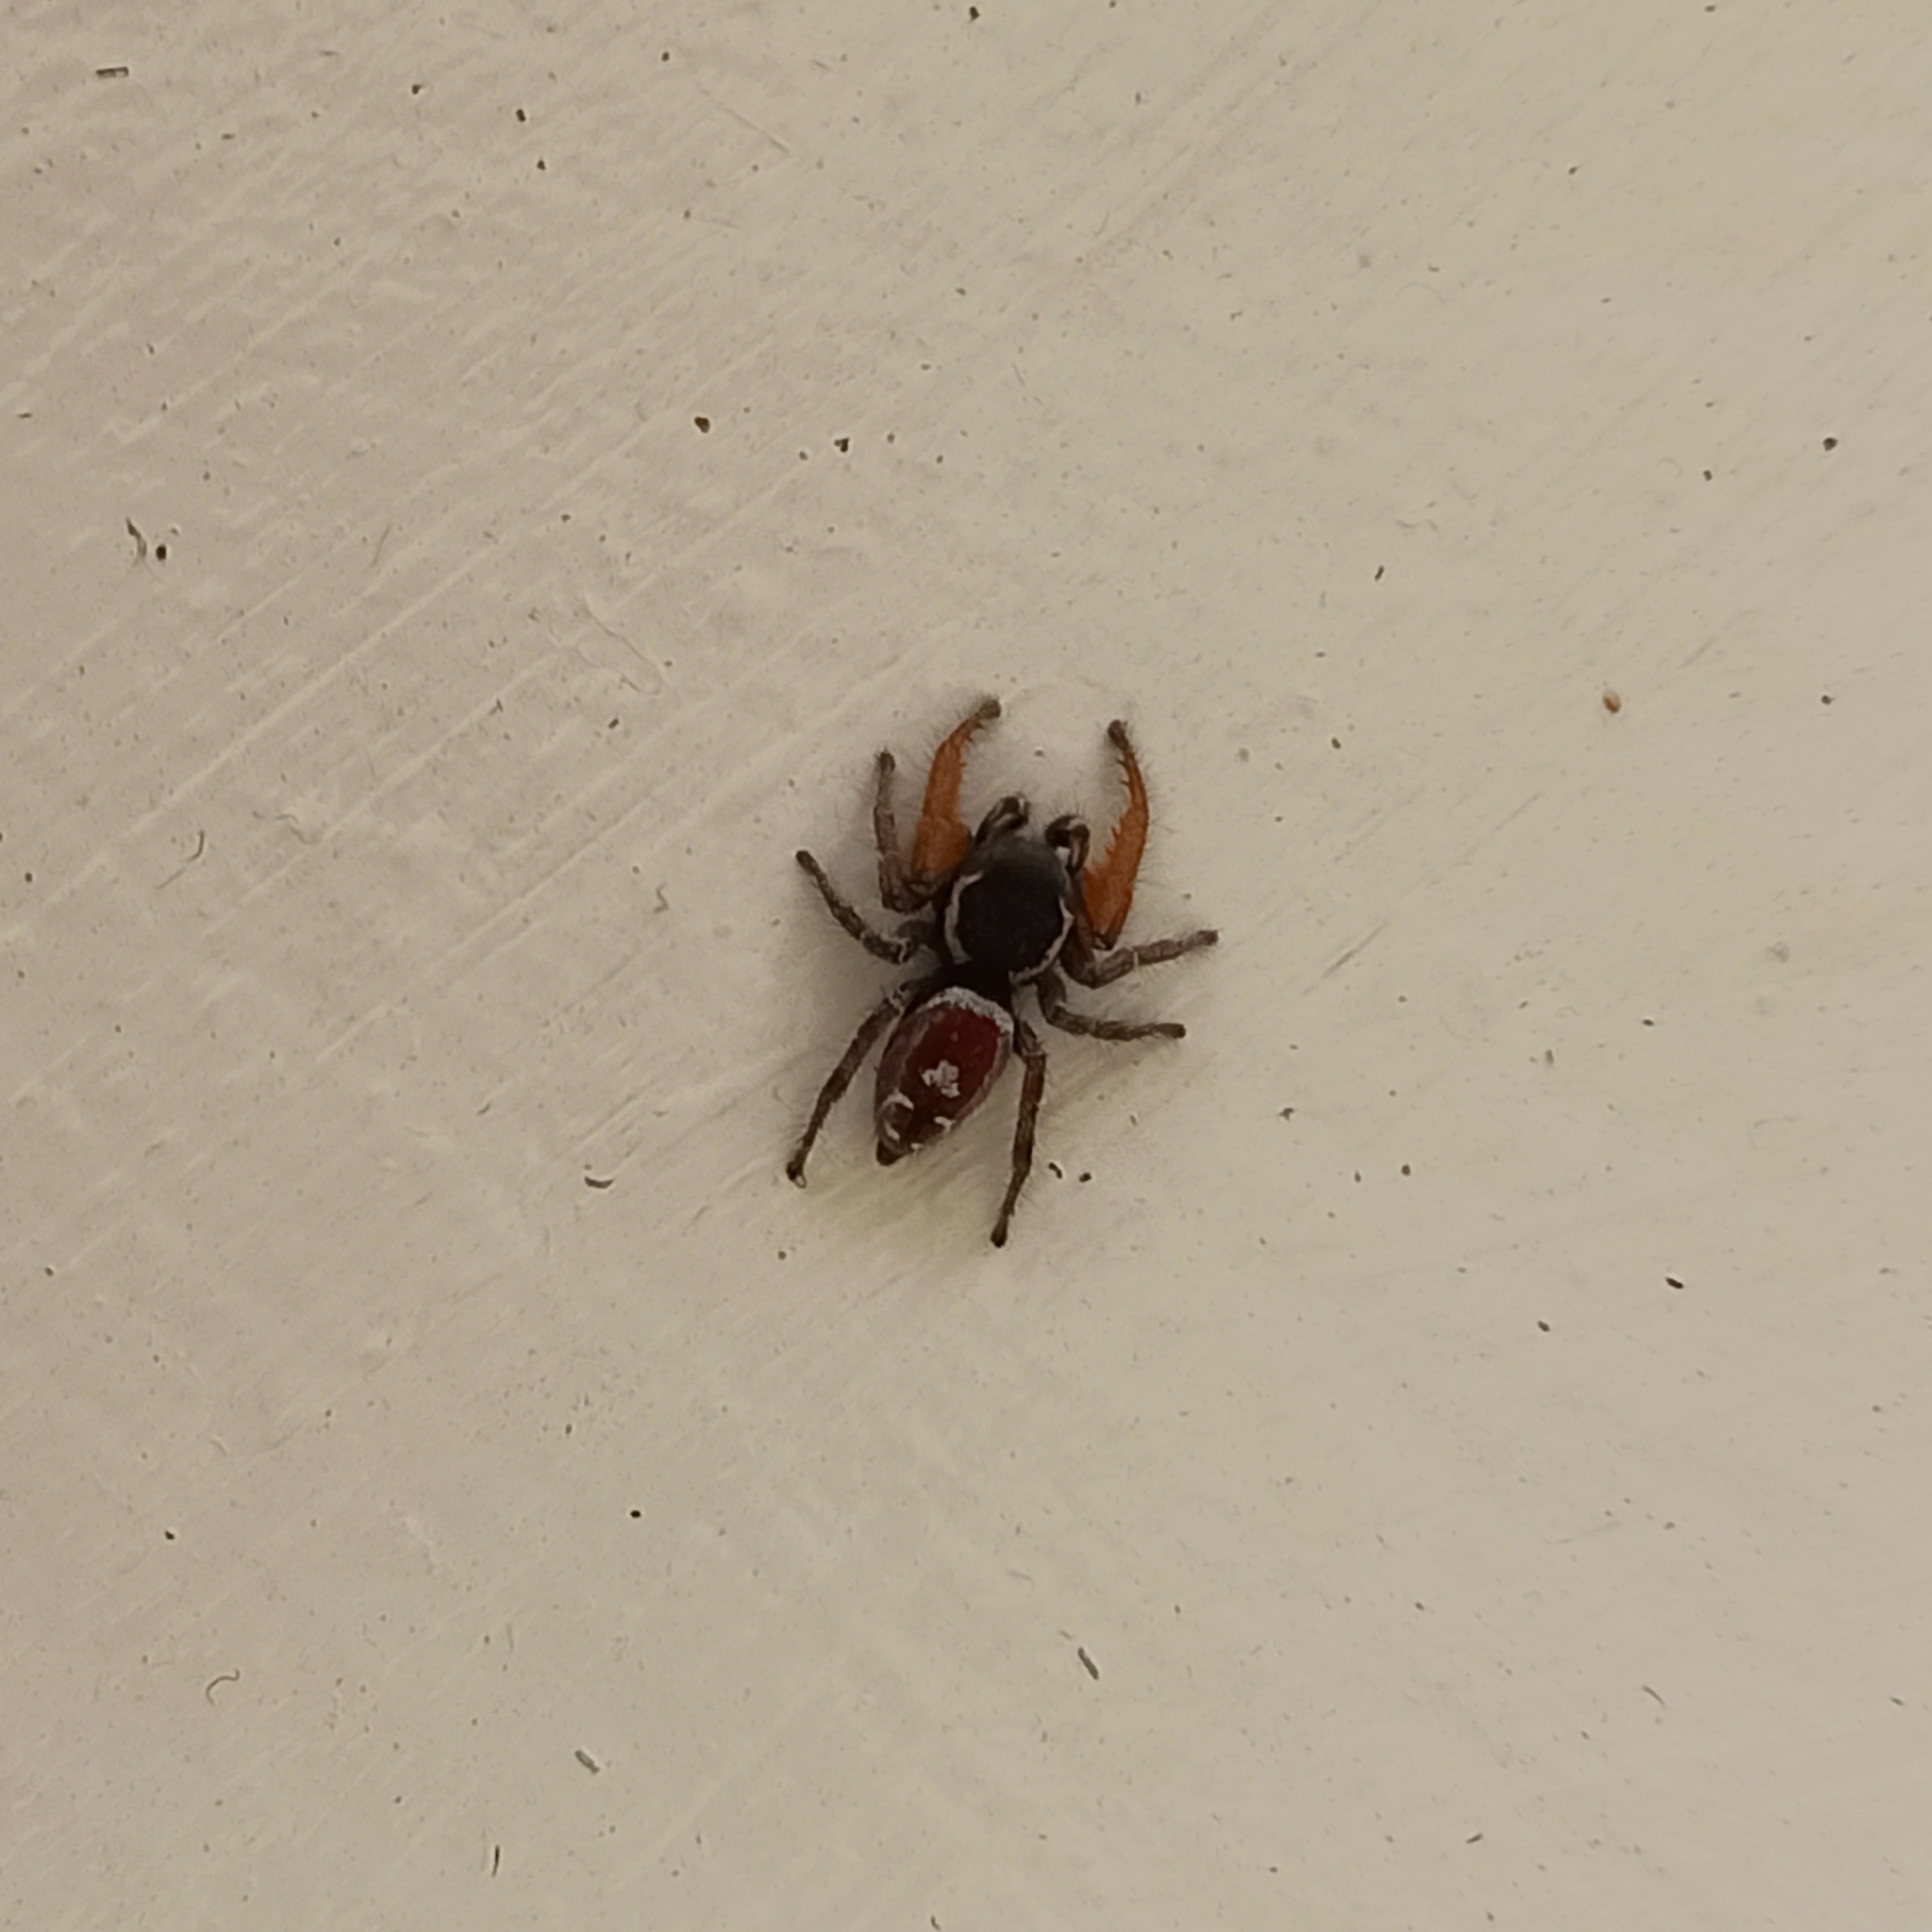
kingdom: Animalia
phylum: Arthropoda
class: Arachnida
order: Araneae
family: Salticidae
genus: Phidippus
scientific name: Phidippus cruentus
